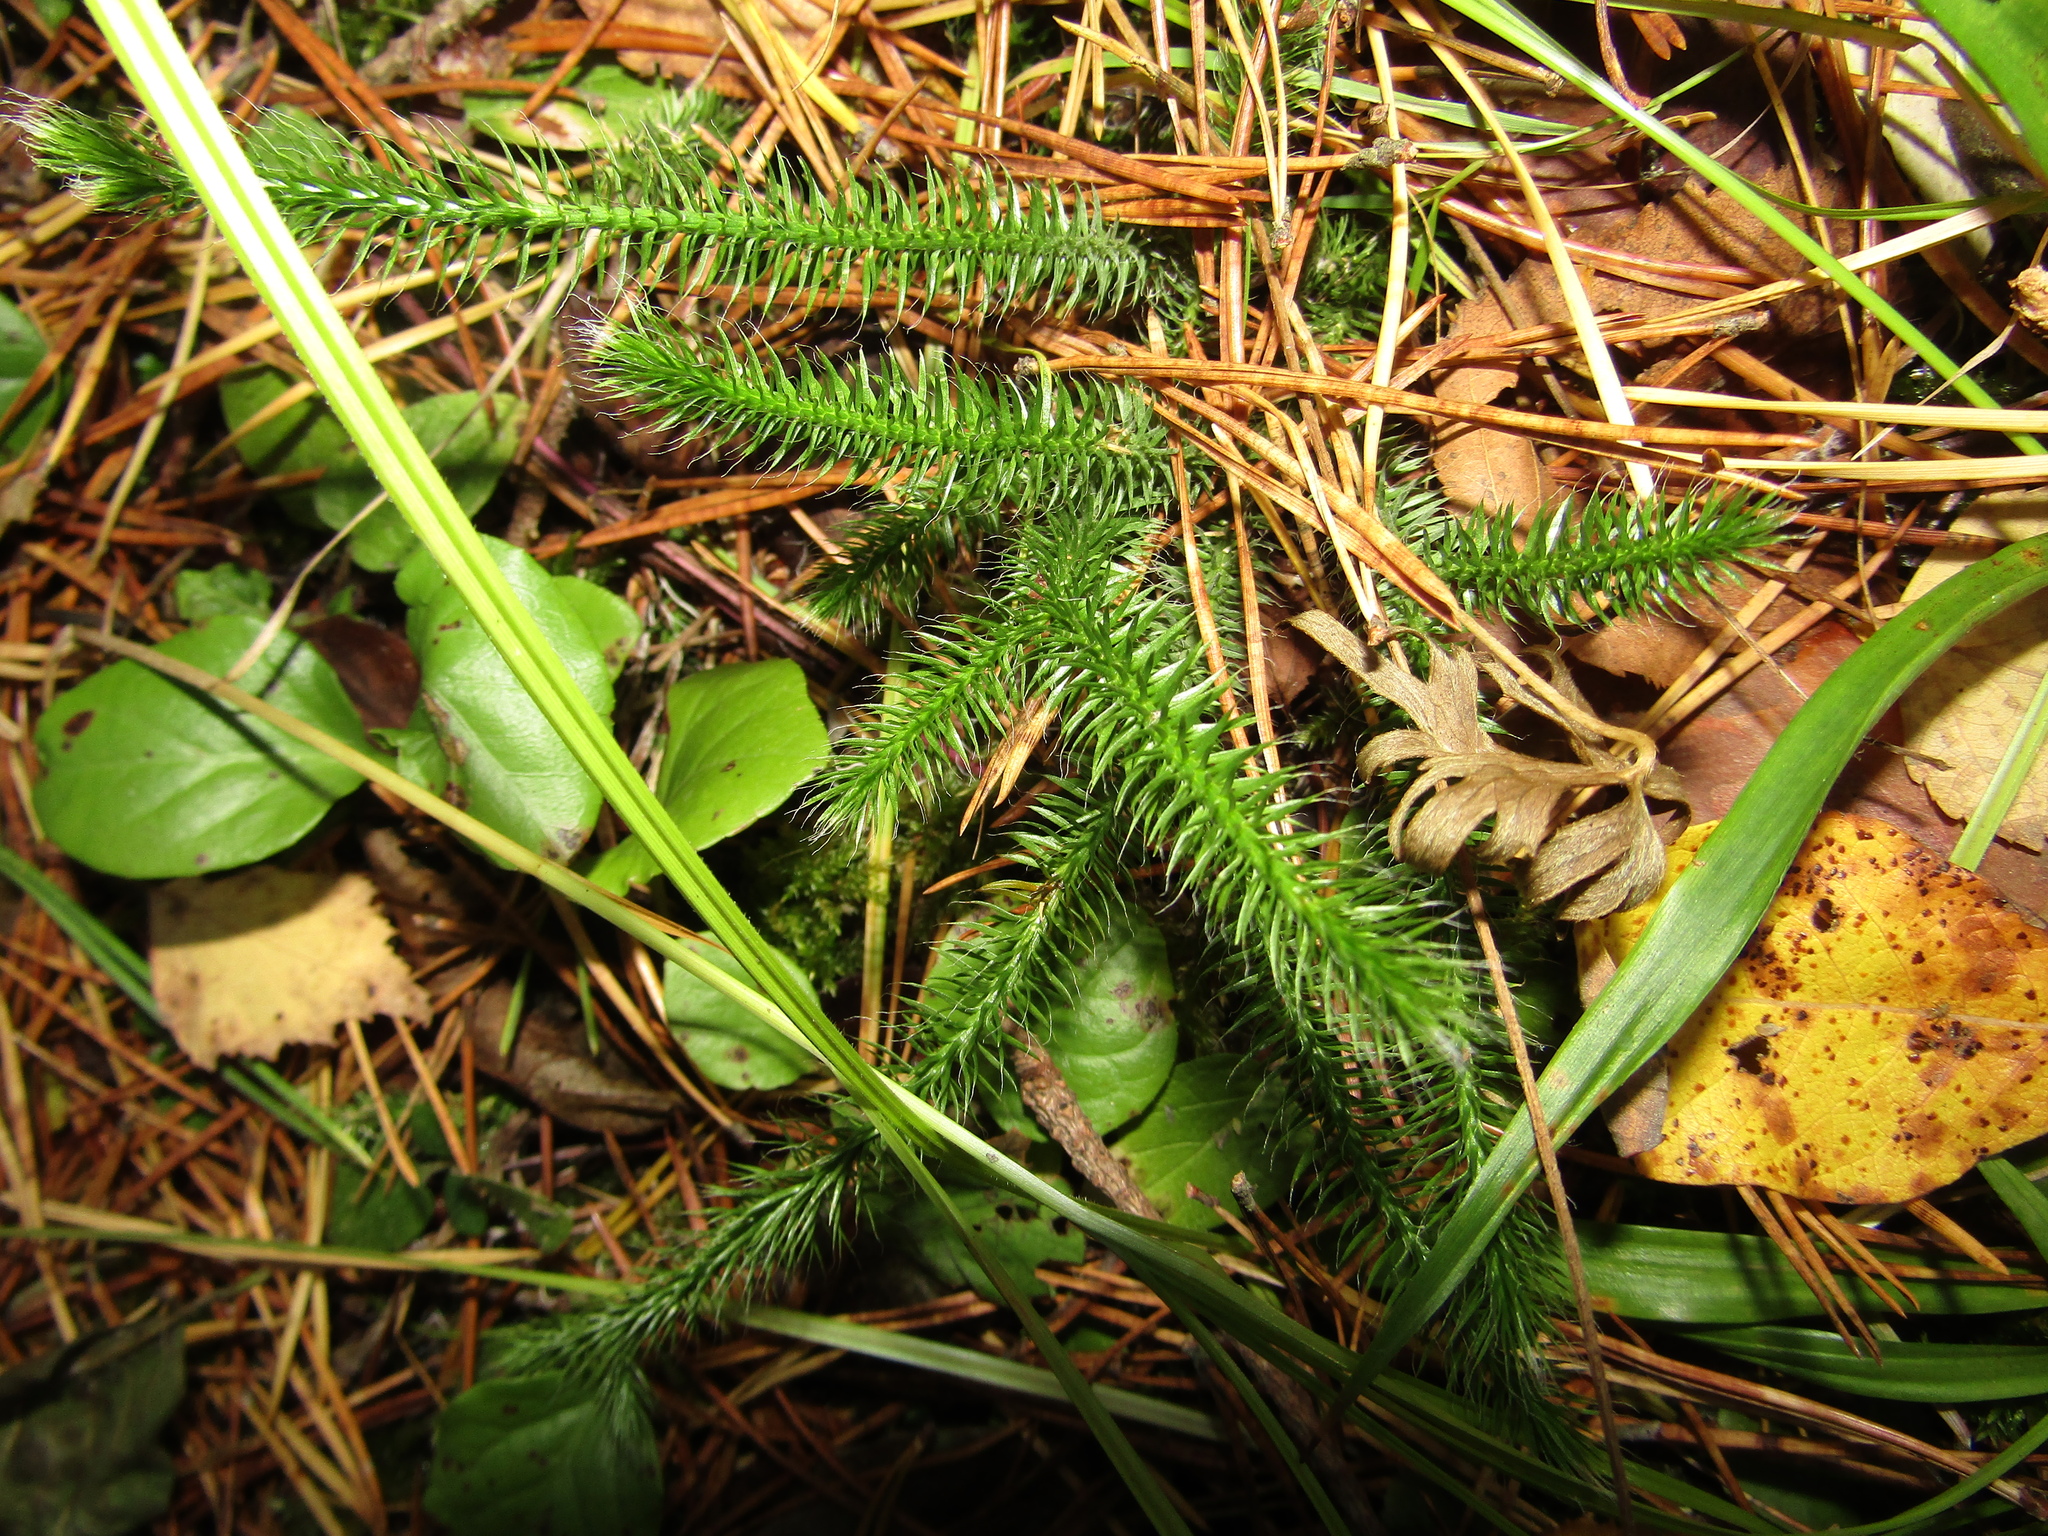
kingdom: Plantae
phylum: Tracheophyta
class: Lycopodiopsida
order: Lycopodiales
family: Lycopodiaceae
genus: Lycopodium
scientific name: Lycopodium clavatum
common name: Stag's-horn clubmoss
